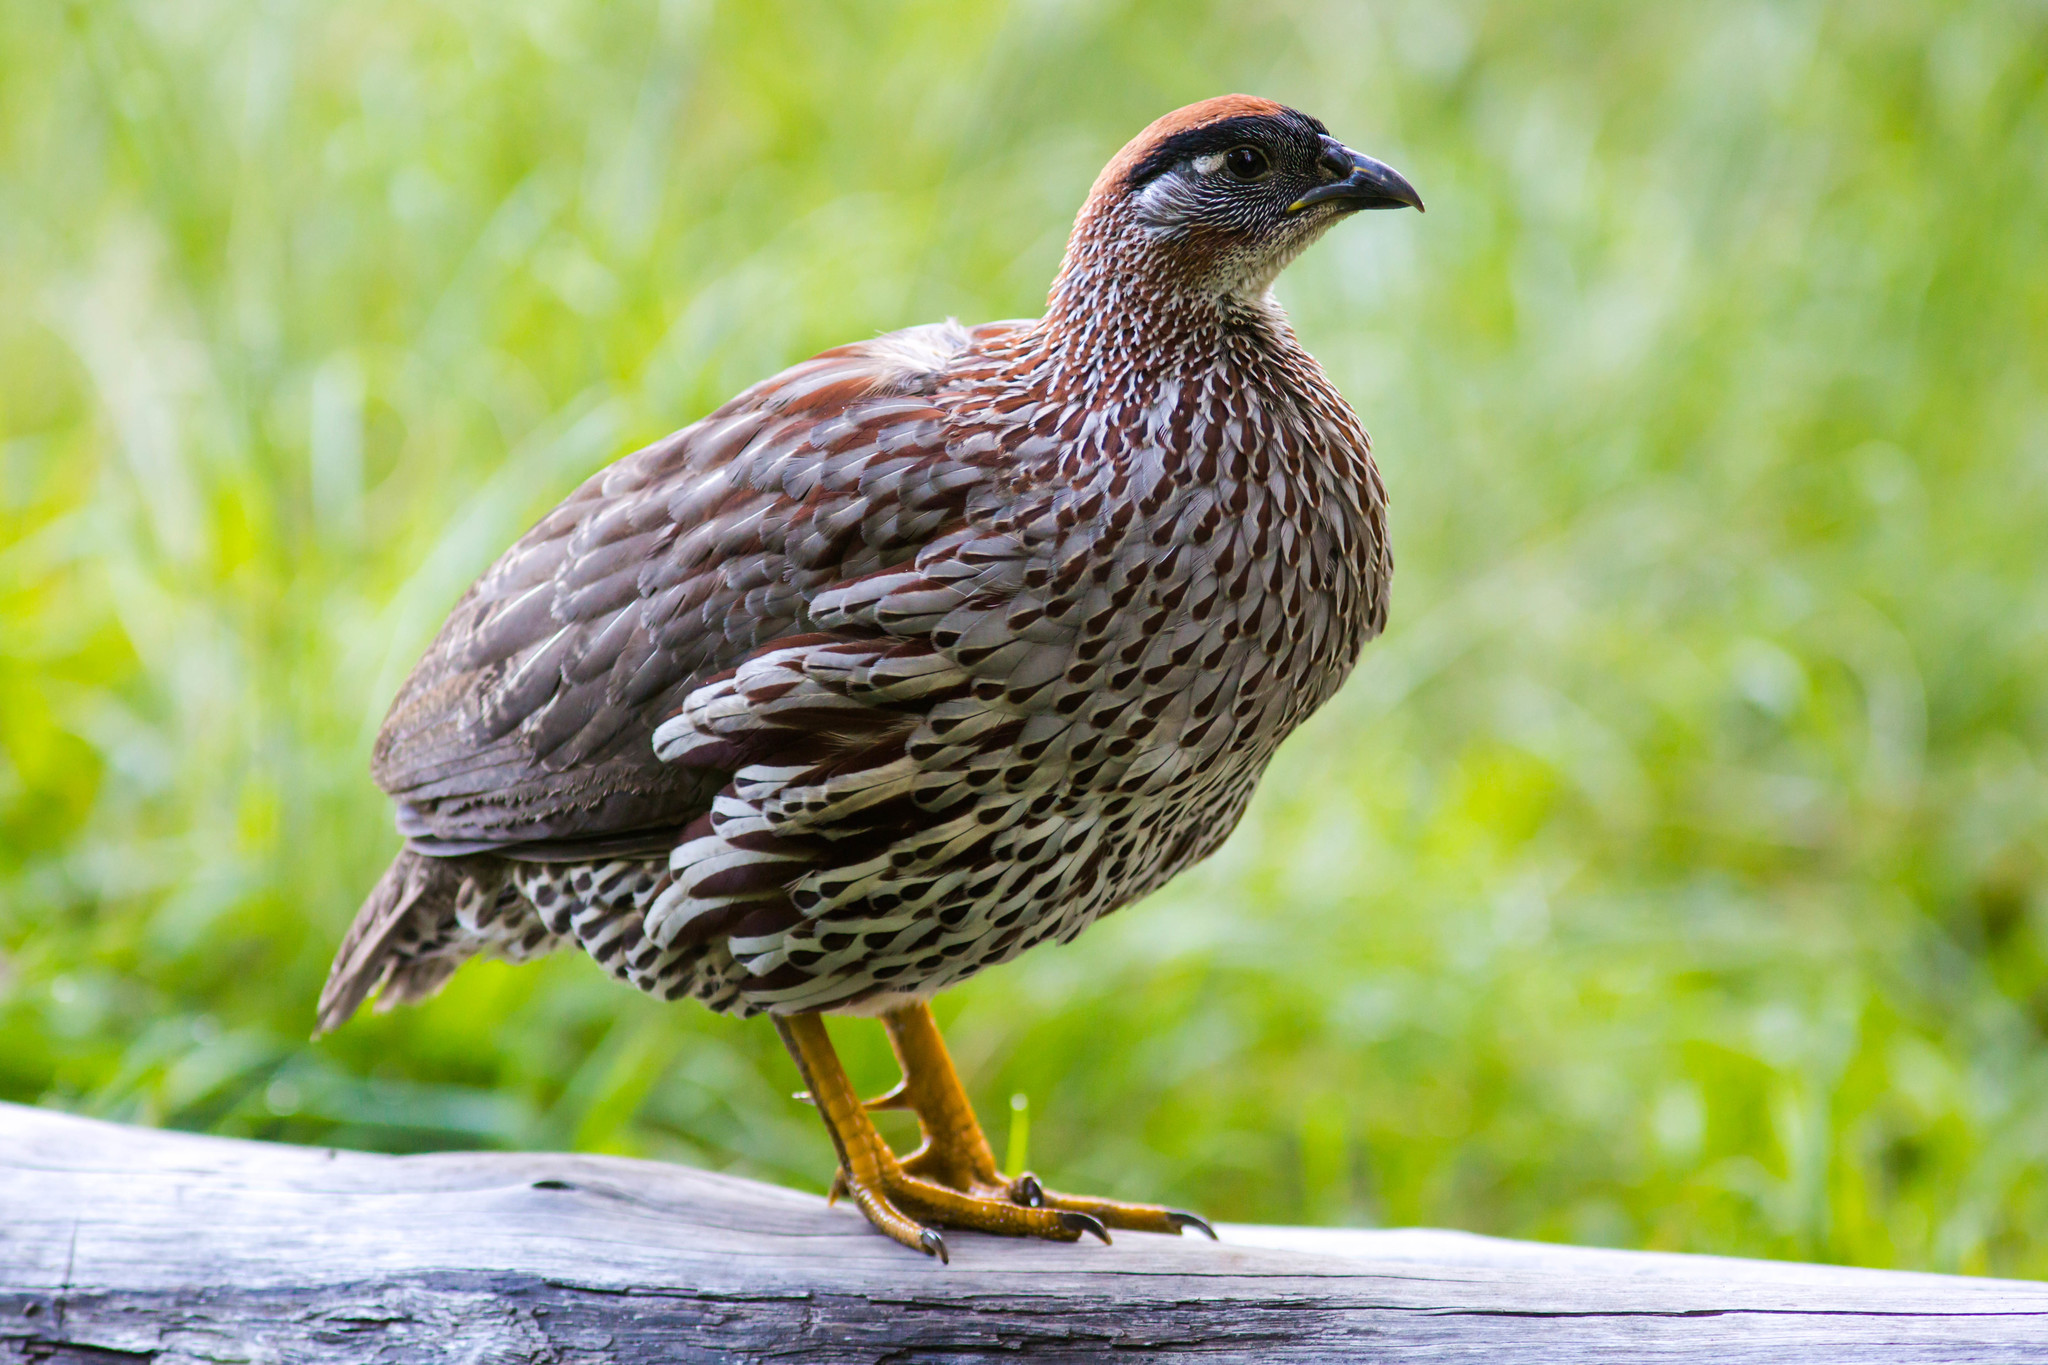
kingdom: Animalia
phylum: Chordata
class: Aves
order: Galliformes
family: Phasianidae
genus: Pternistis
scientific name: Pternistis erckelii
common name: Erckel's francolin
